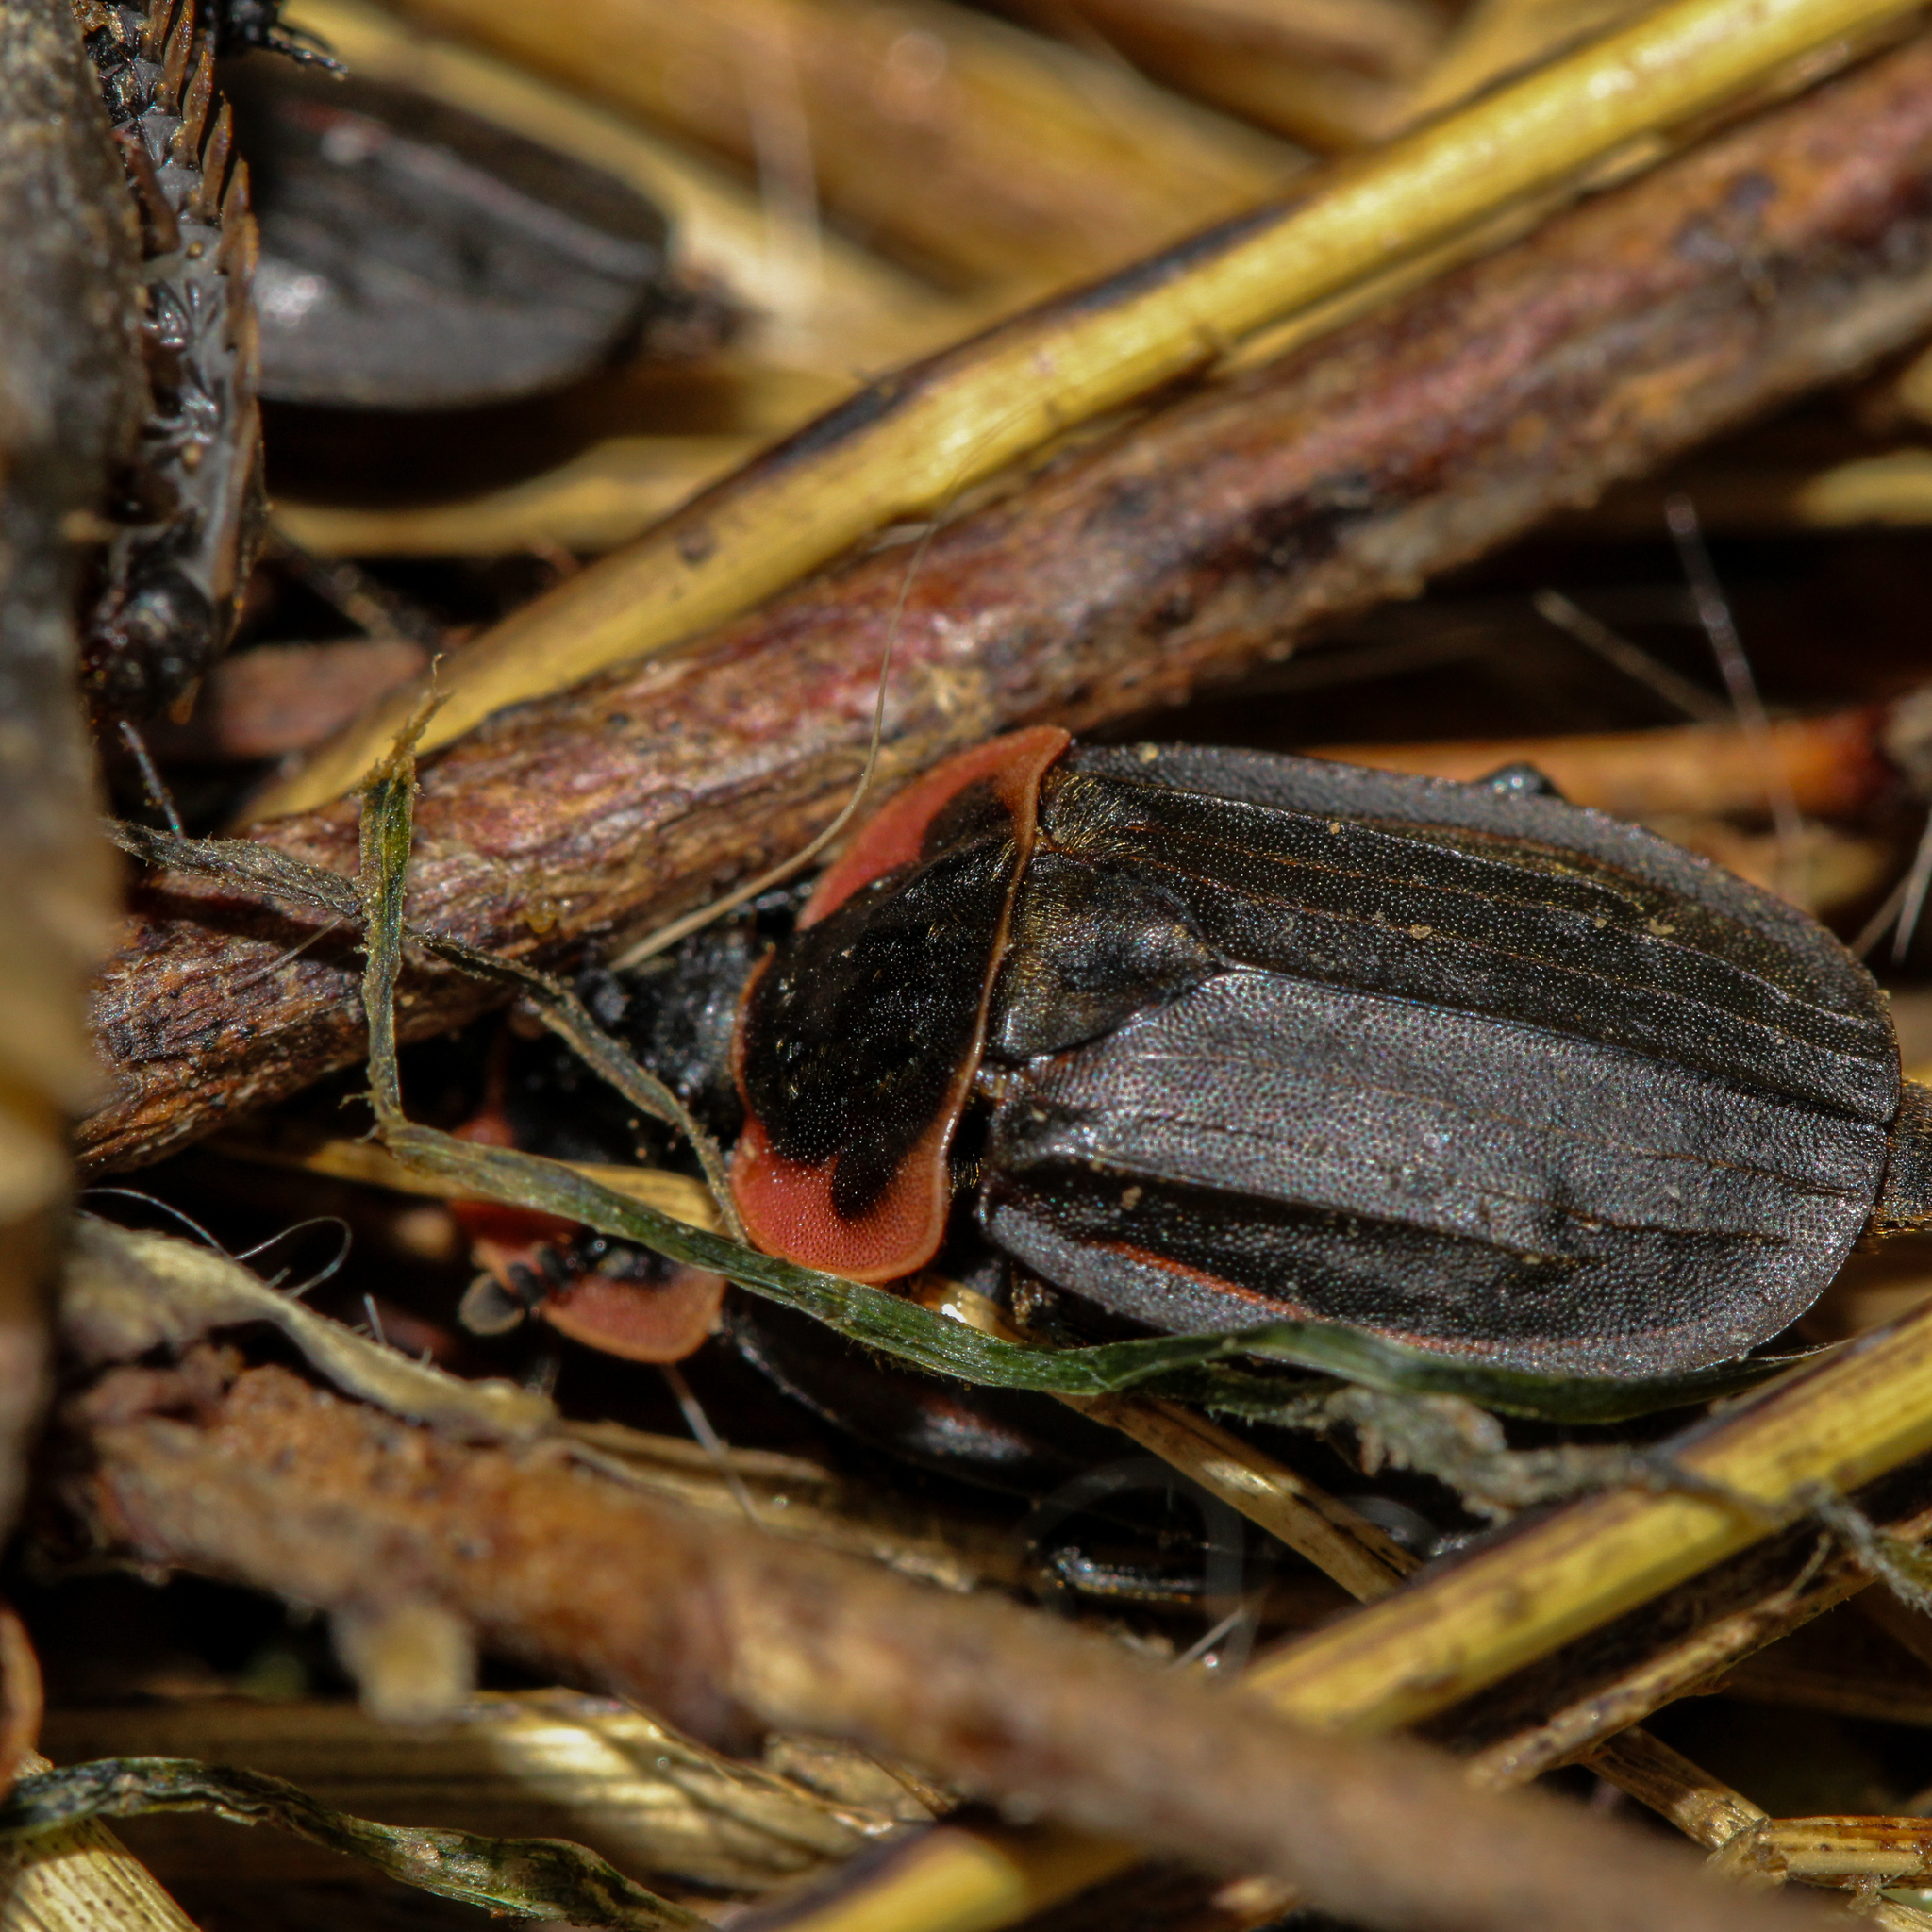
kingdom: Animalia
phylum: Arthropoda
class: Insecta
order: Coleoptera
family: Staphylinidae
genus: Oiceoptoma
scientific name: Oiceoptoma noveboracense
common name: Margined carrion beetle
